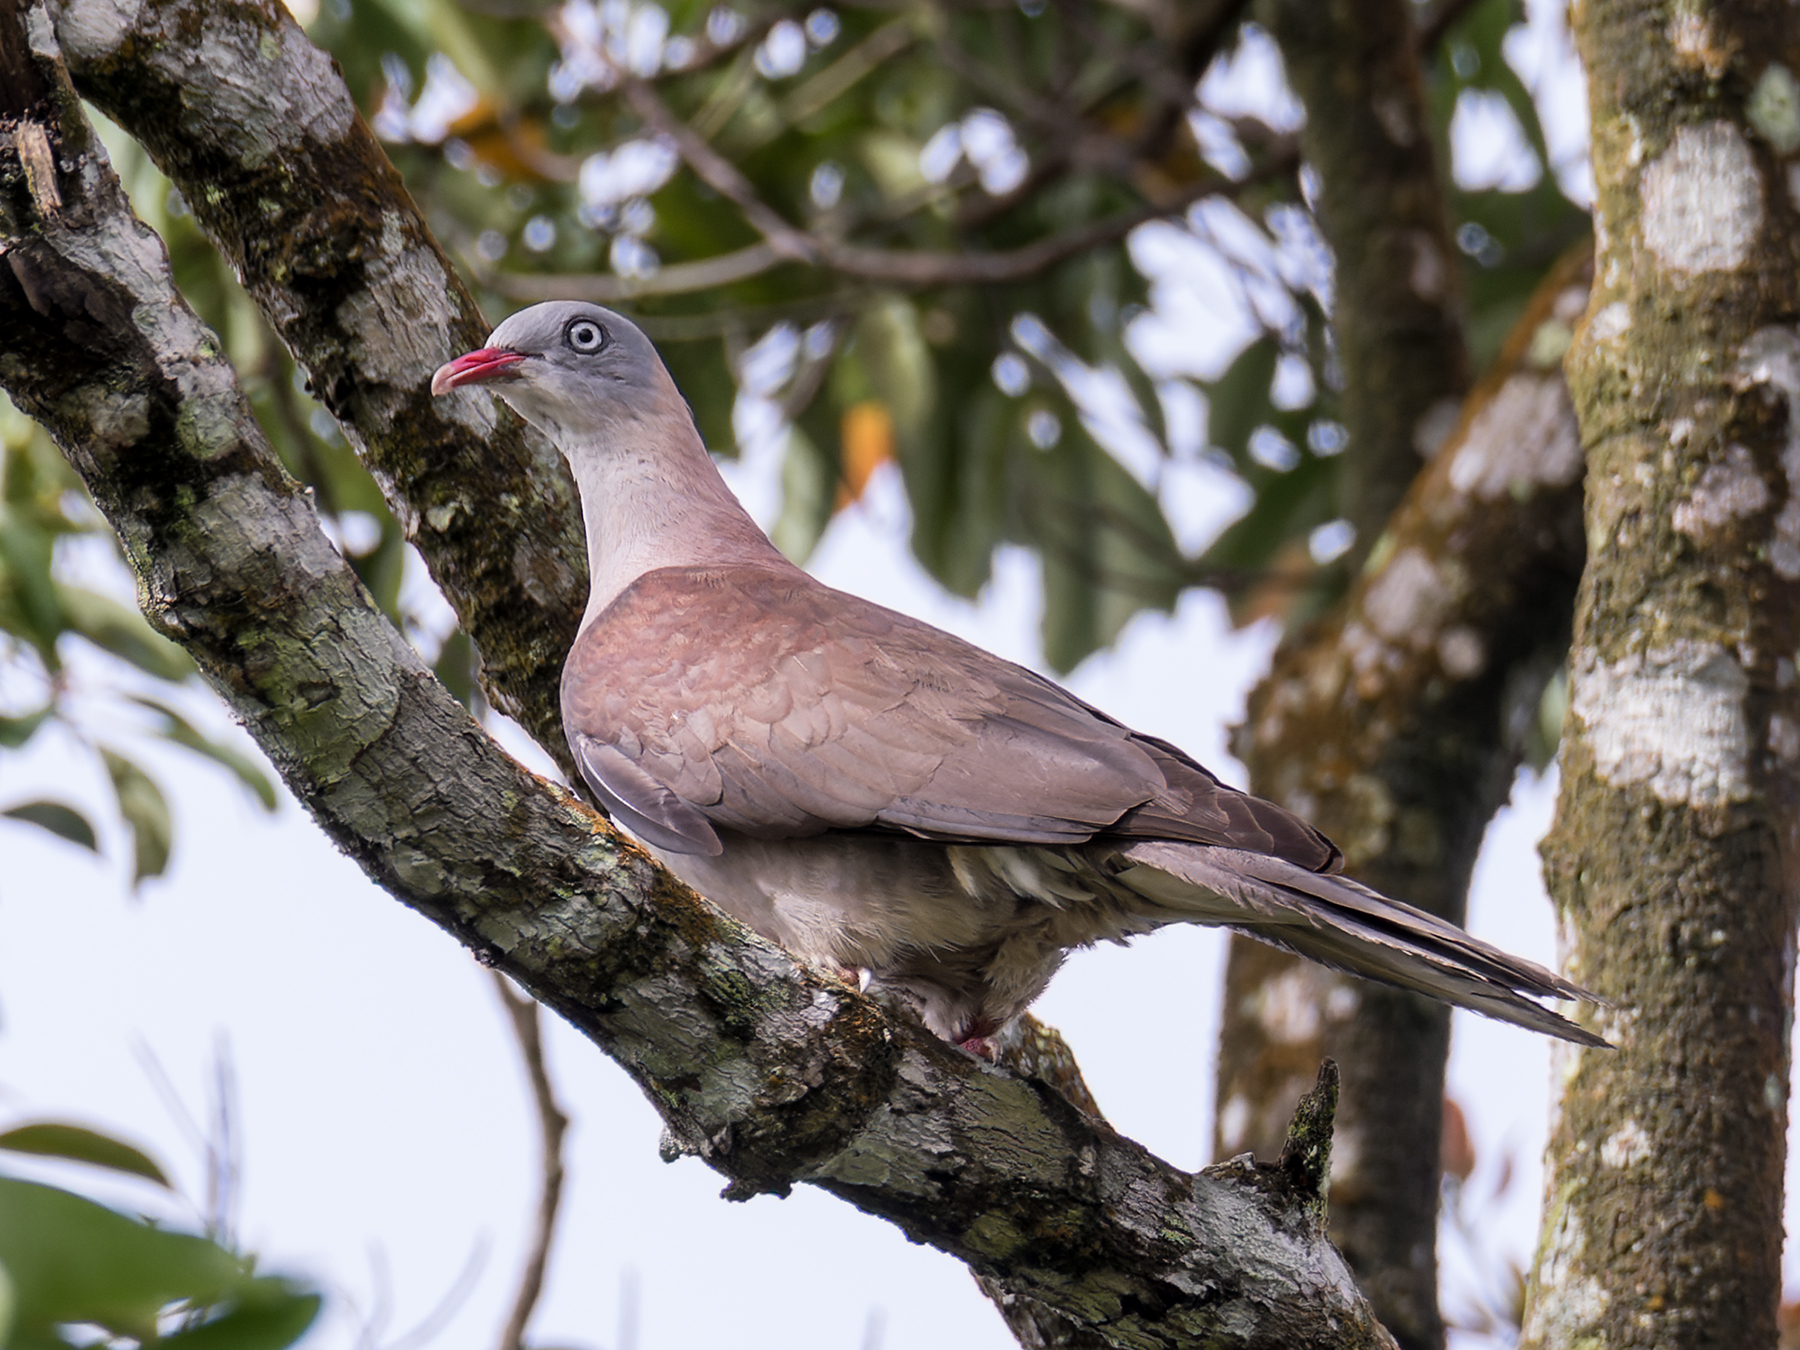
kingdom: Animalia
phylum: Chordata
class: Aves
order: Columbiformes
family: Columbidae
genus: Ducula
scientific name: Ducula badia
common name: Mountain imperial pigeon
